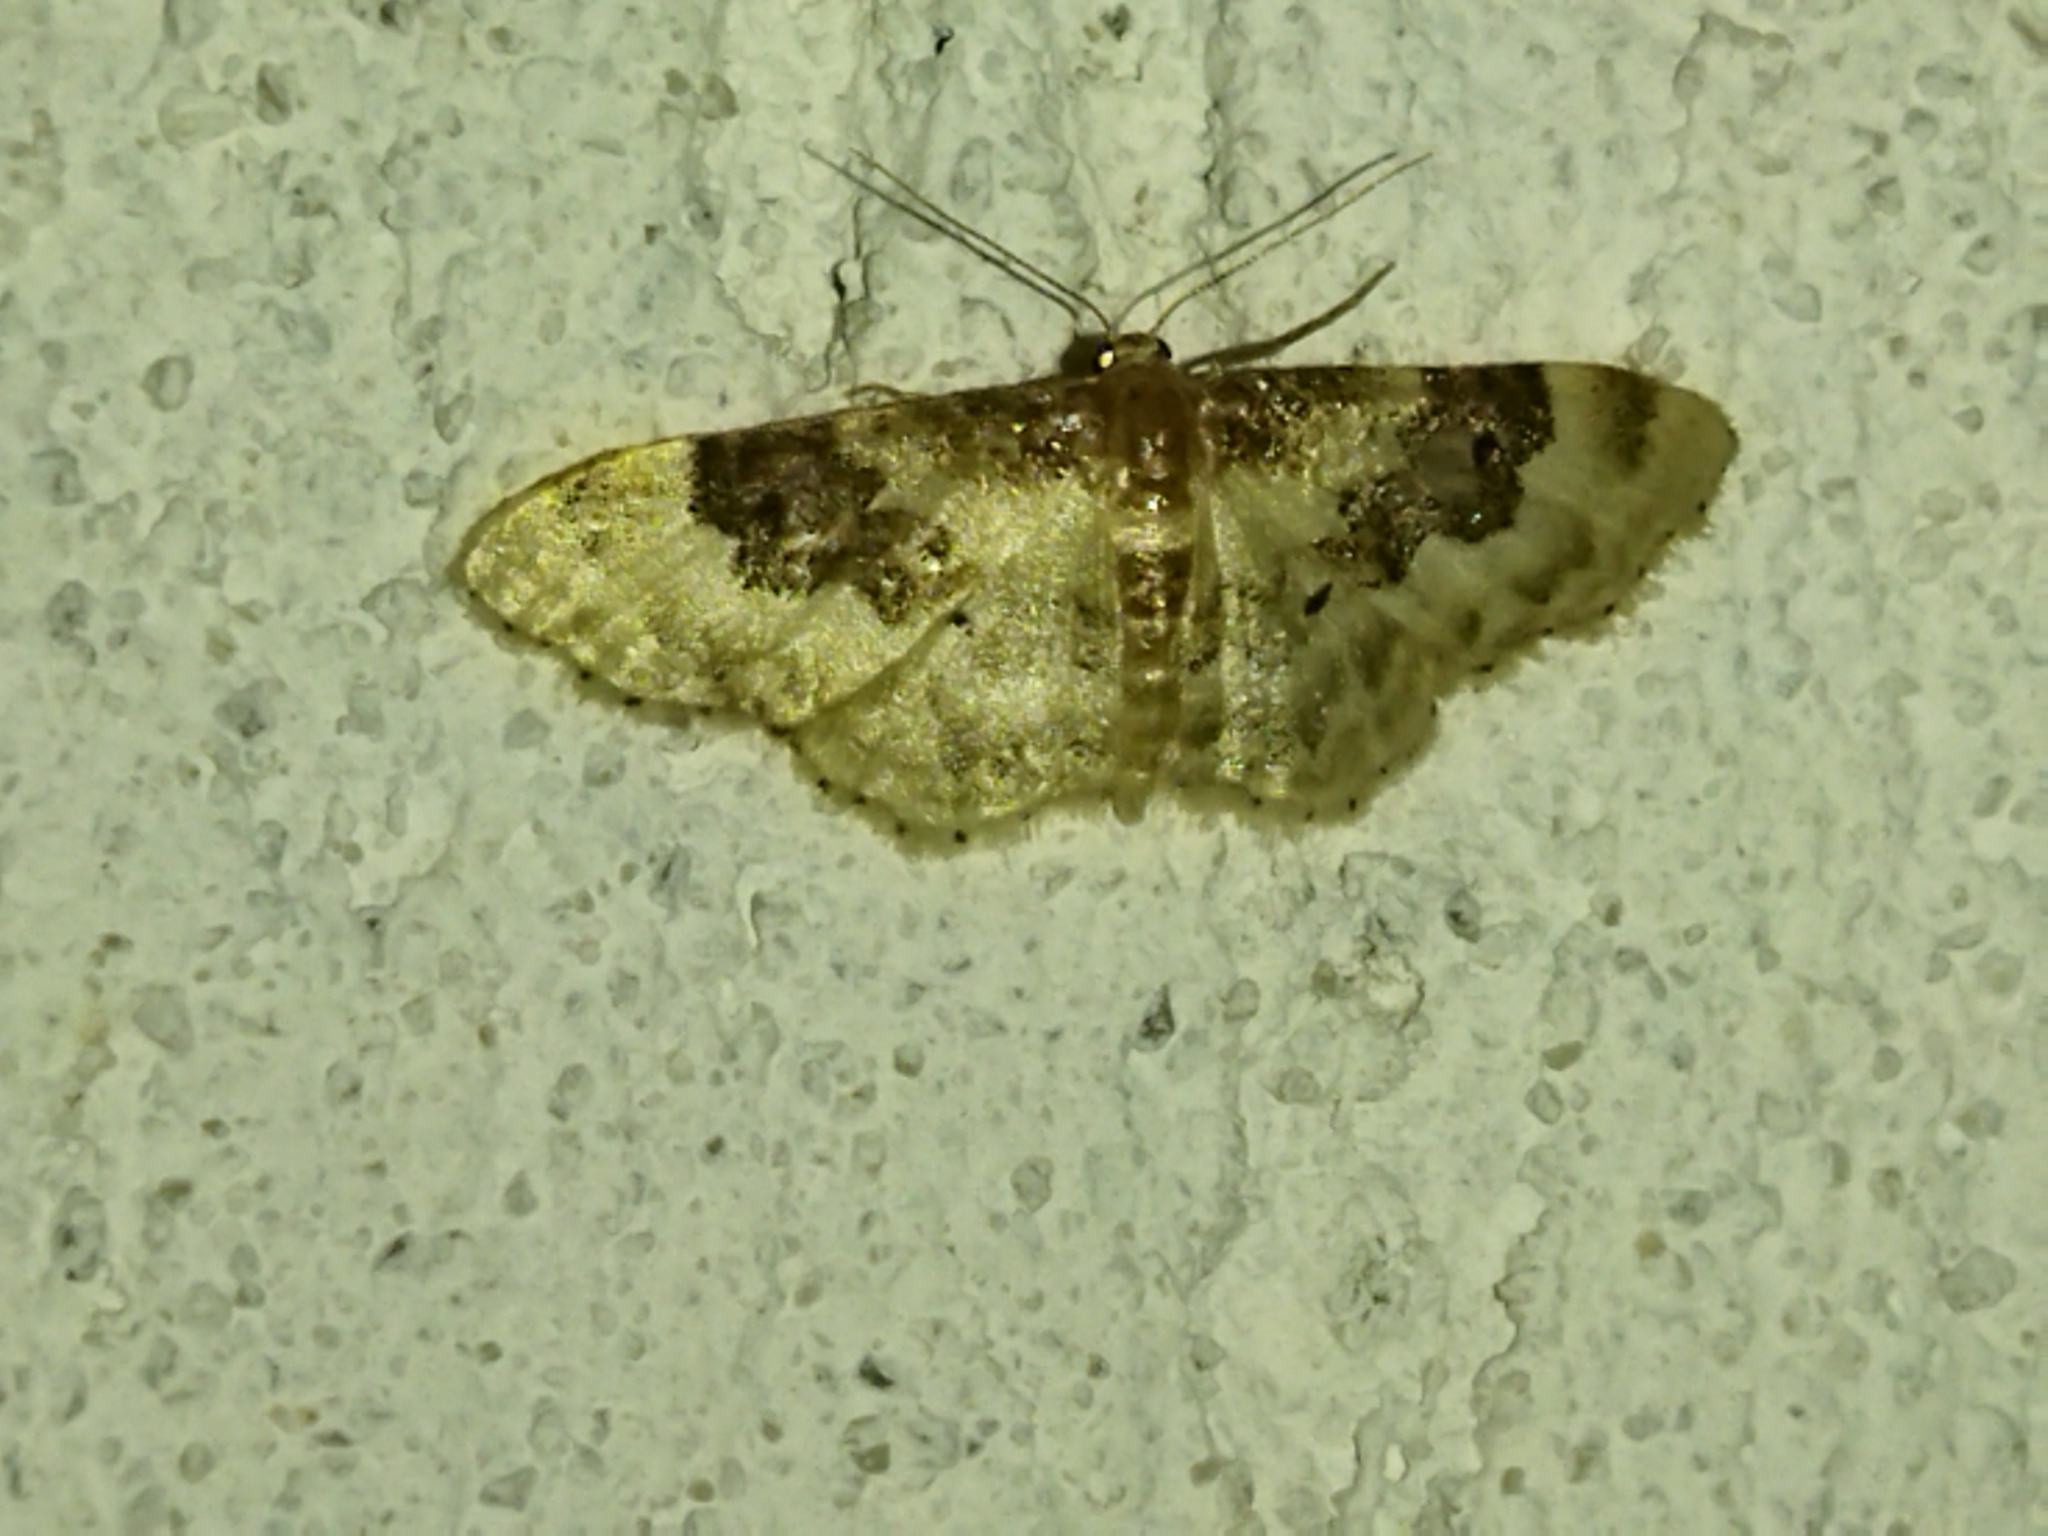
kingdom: Animalia
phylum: Arthropoda
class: Insecta
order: Lepidoptera
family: Geometridae
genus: Idaea
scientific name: Idaea rusticata
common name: Least carpet
